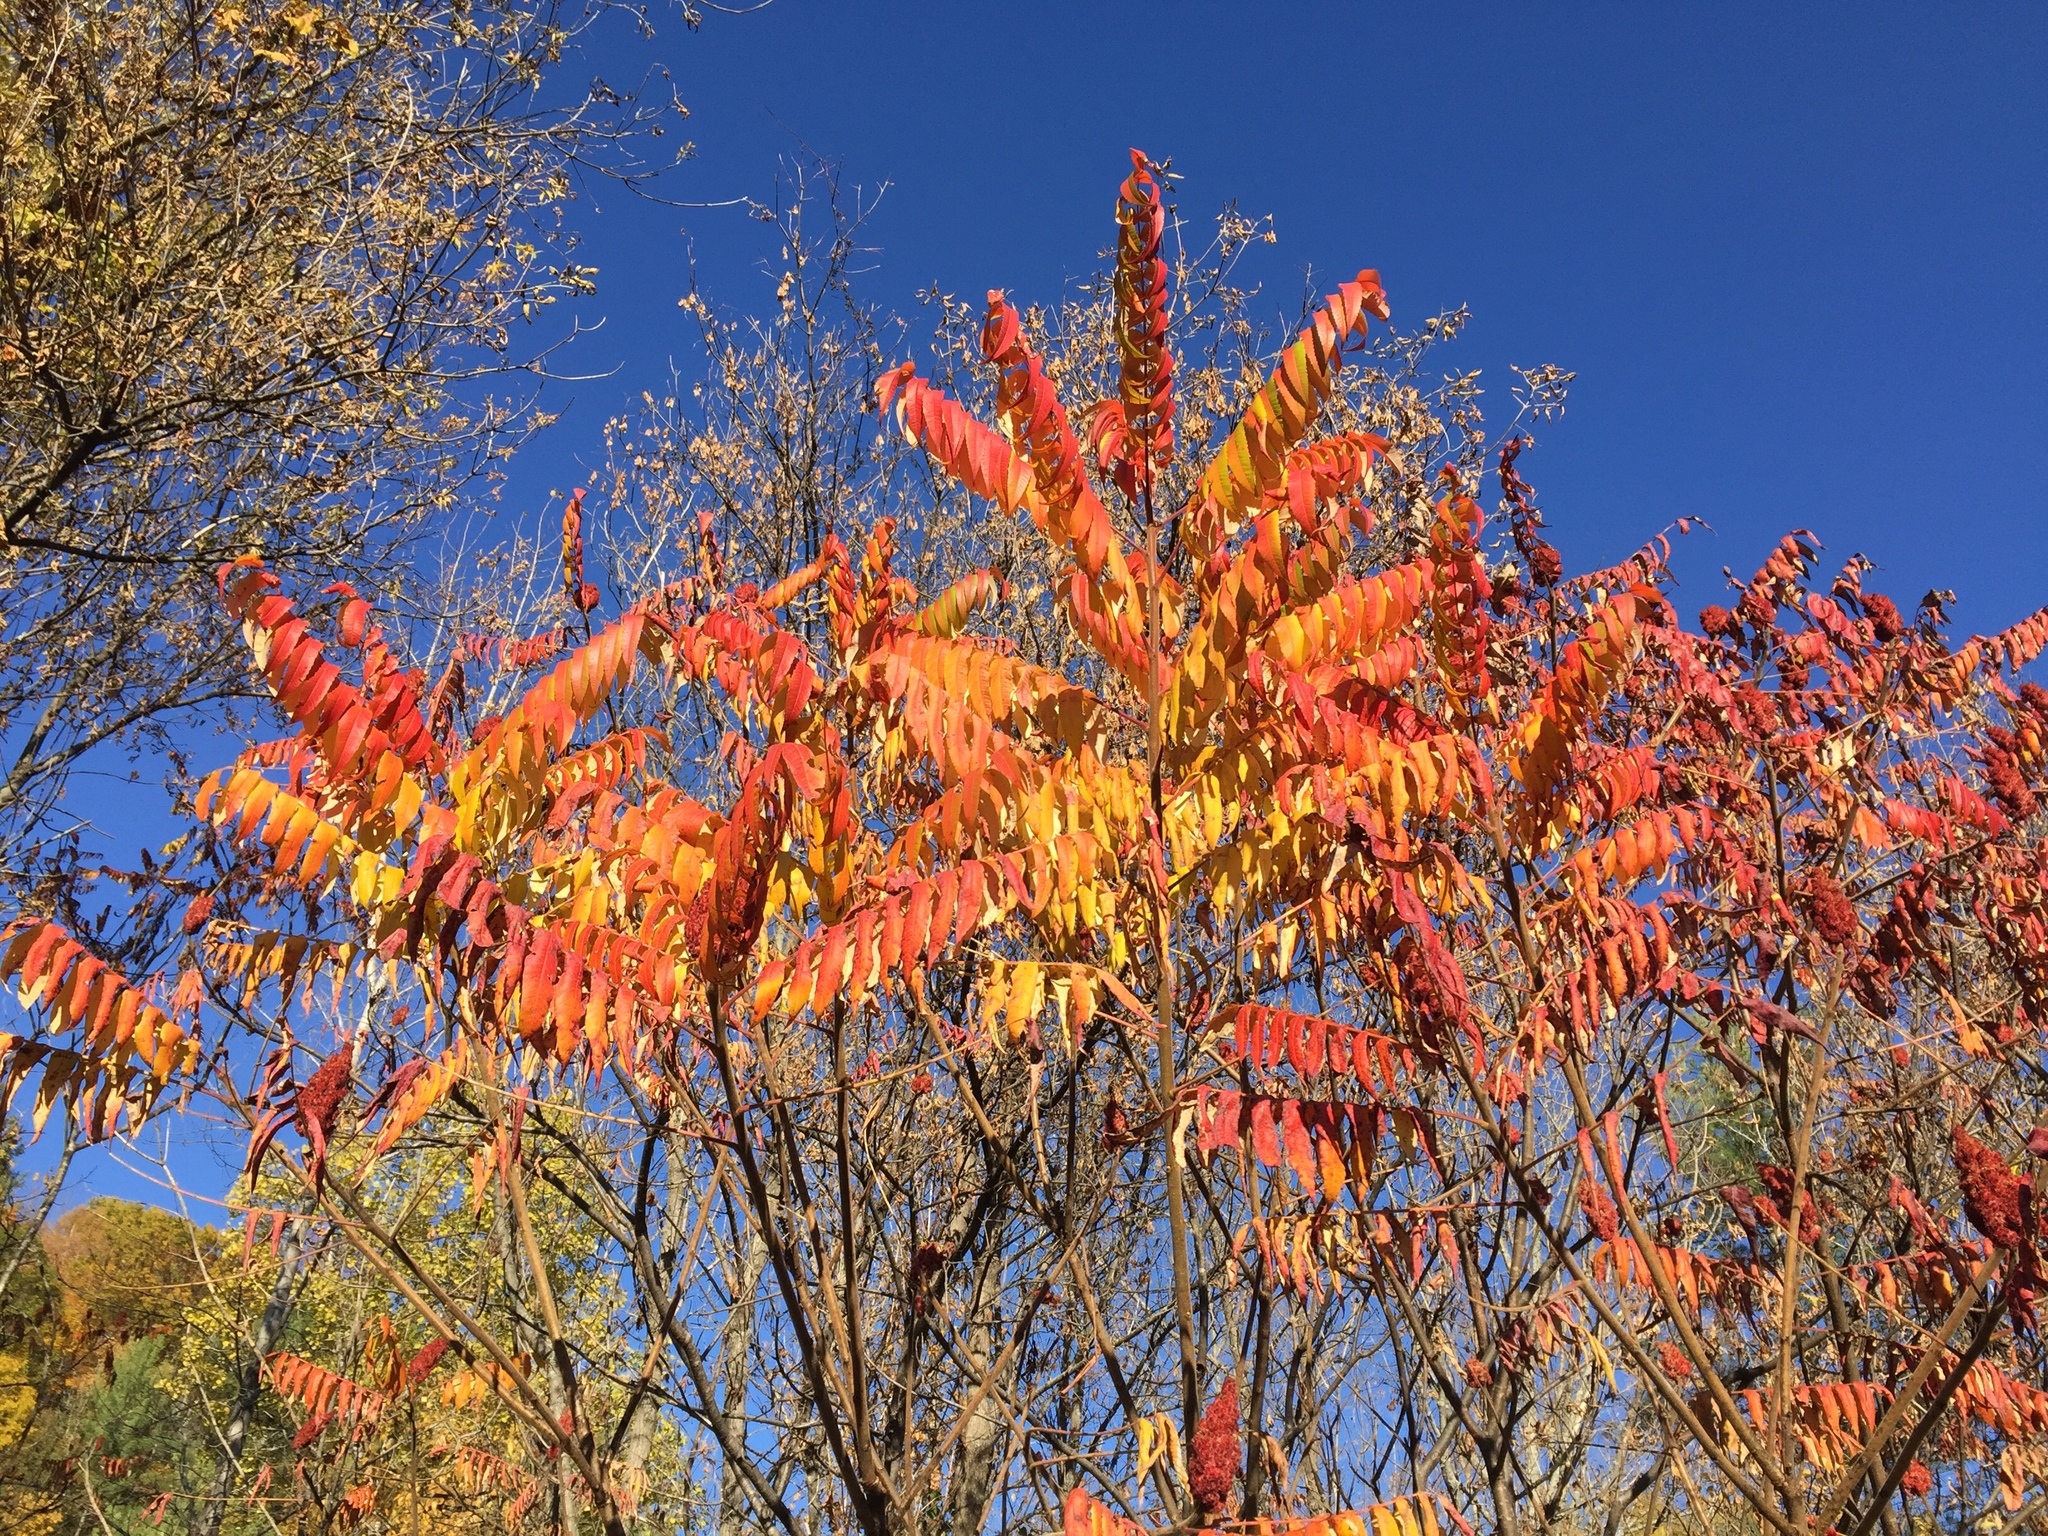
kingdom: Plantae
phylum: Tracheophyta
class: Magnoliopsida
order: Sapindales
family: Anacardiaceae
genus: Rhus
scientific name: Rhus typhina
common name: Staghorn sumac
